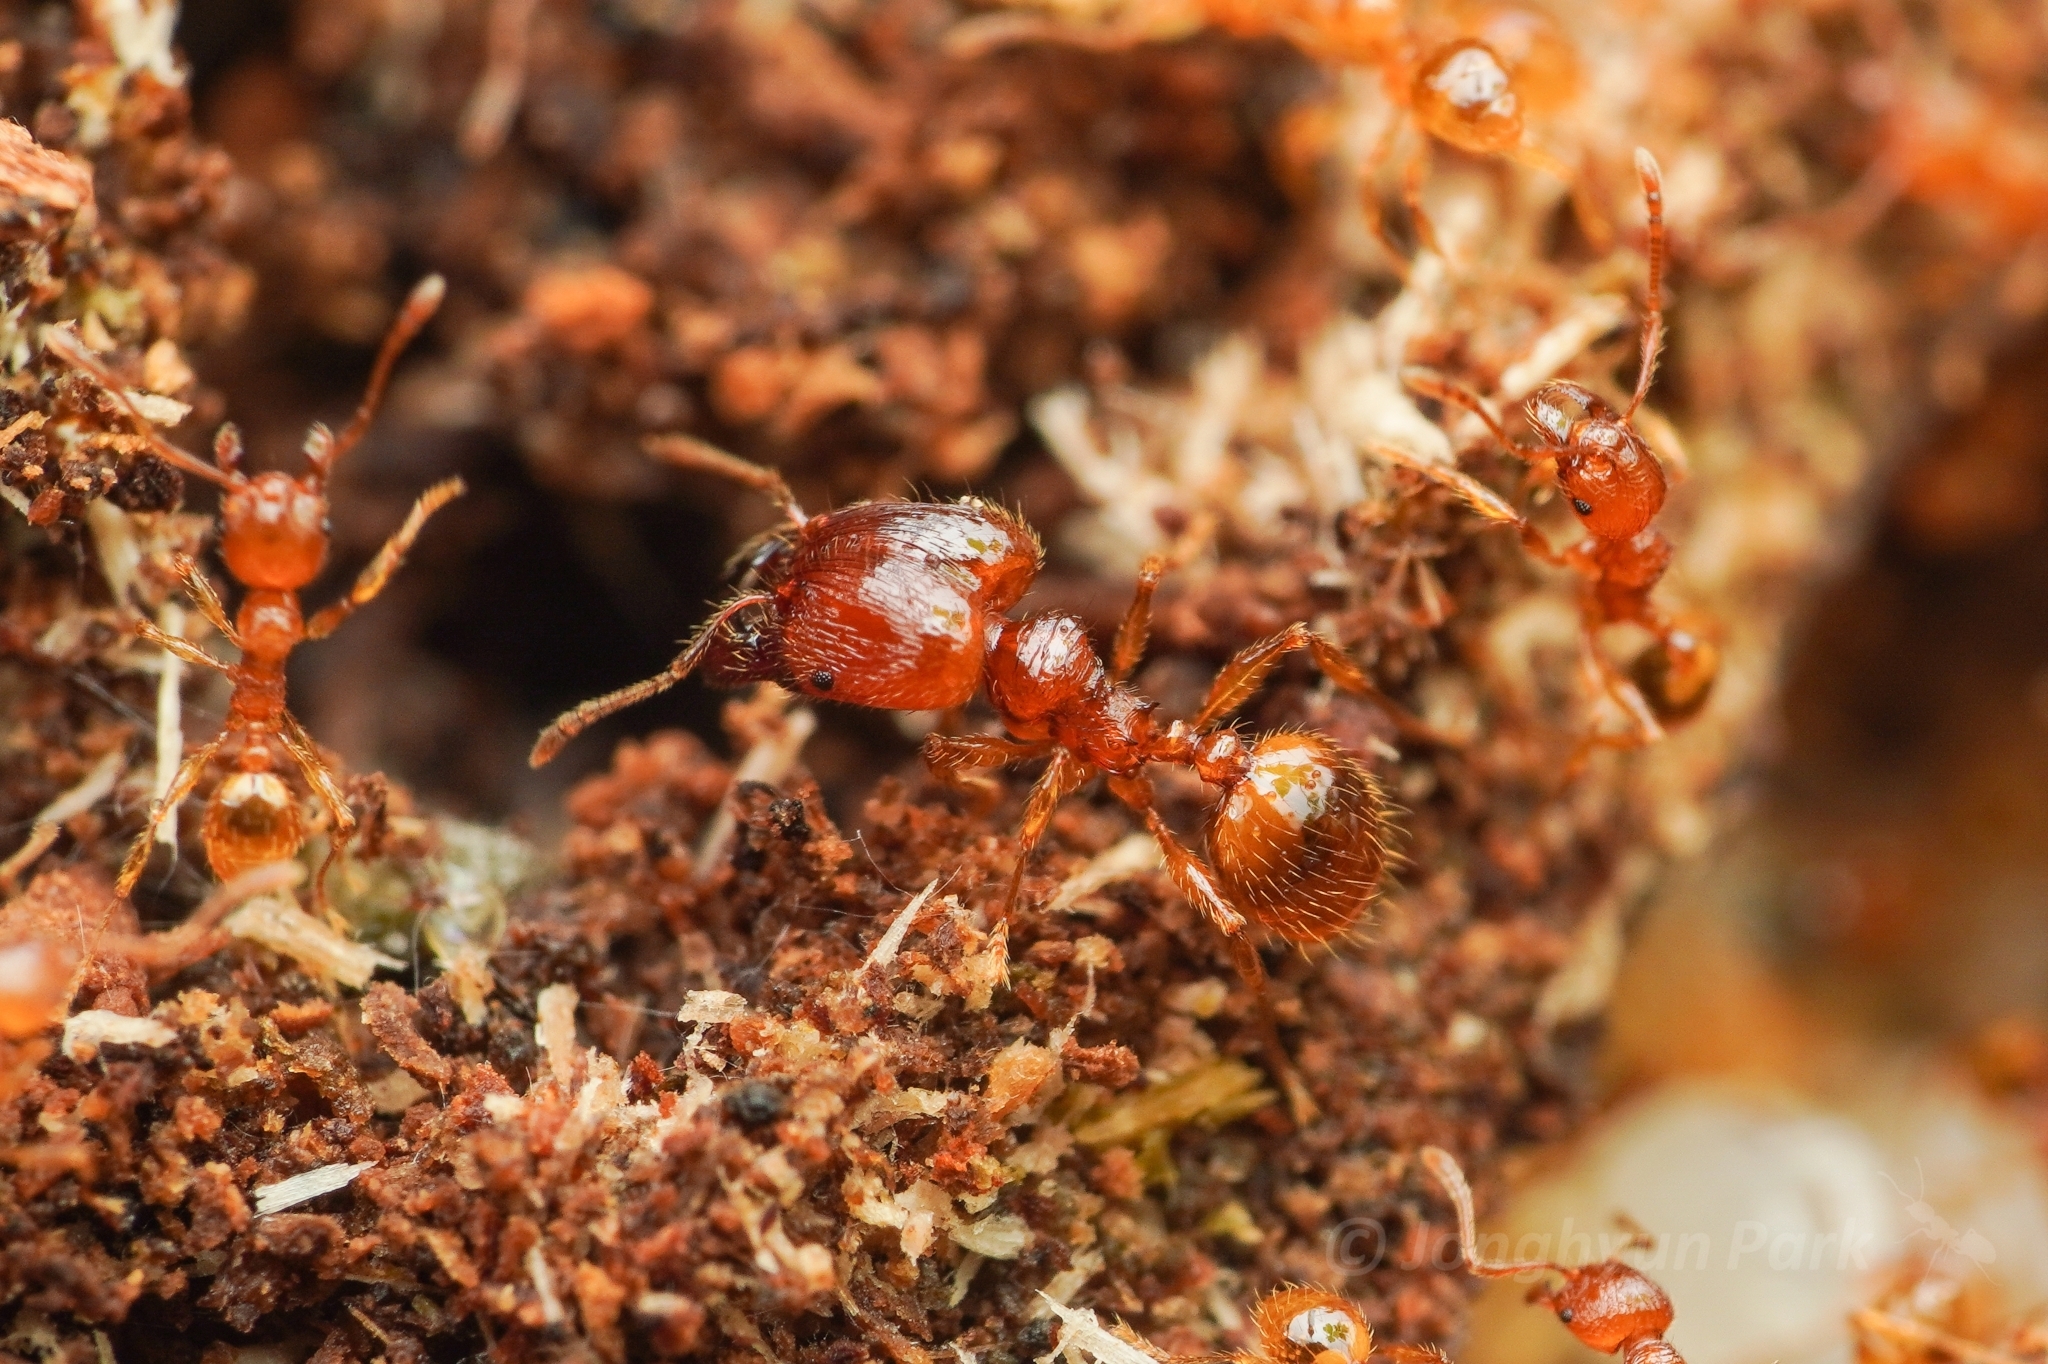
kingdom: Animalia
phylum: Arthropoda
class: Insecta
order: Hymenoptera
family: Formicidae
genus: Pheidole
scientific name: Pheidole fervida
